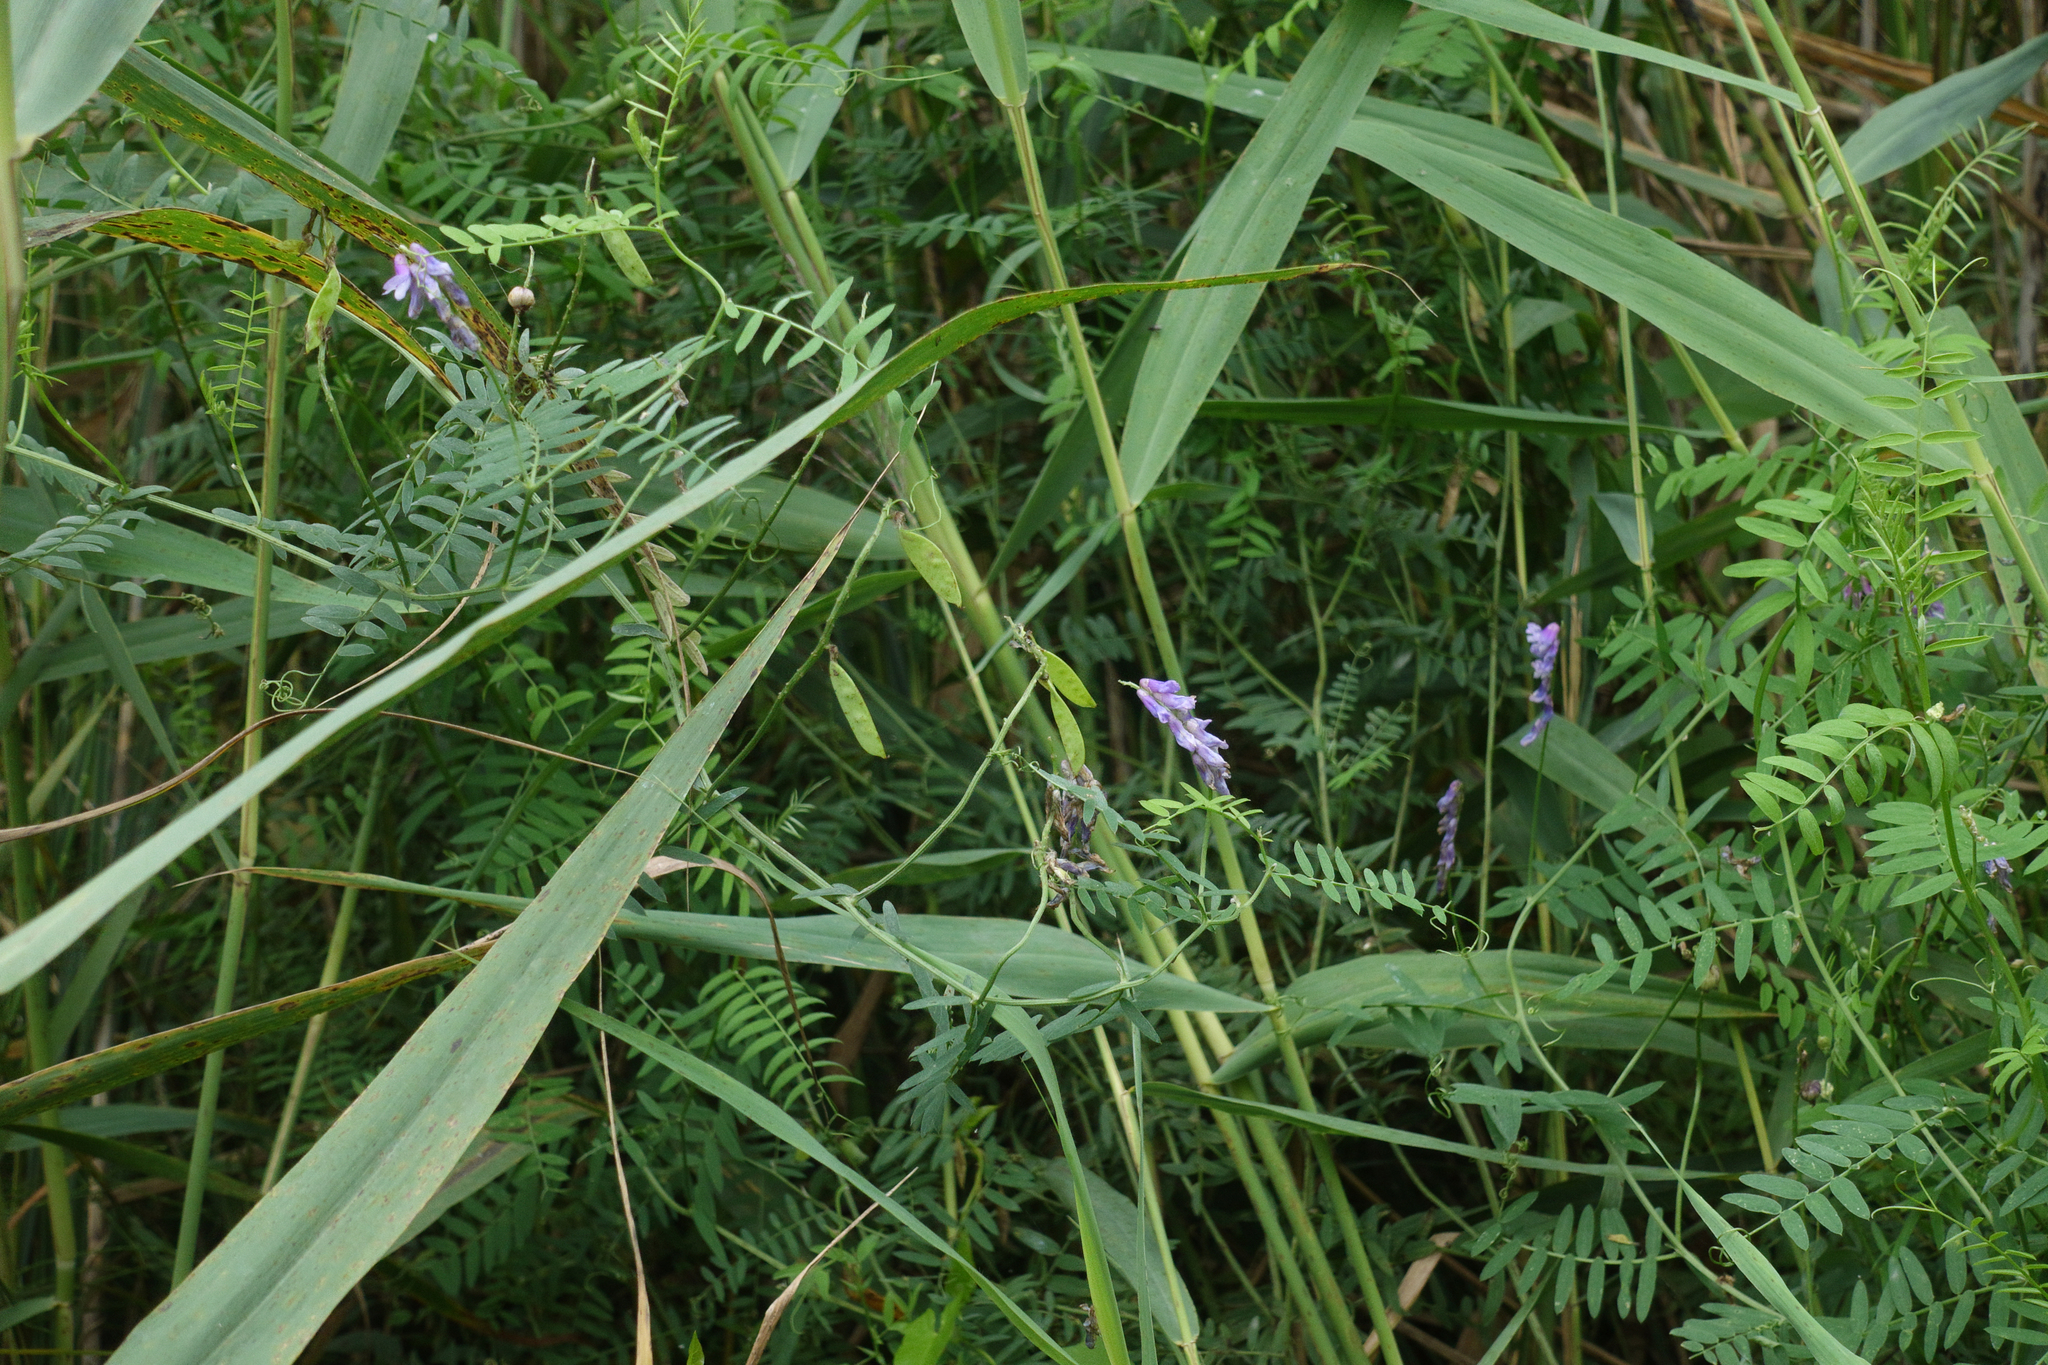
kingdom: Plantae
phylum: Tracheophyta
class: Magnoliopsida
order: Fabales
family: Fabaceae
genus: Vicia
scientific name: Vicia cracca
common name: Bird vetch
